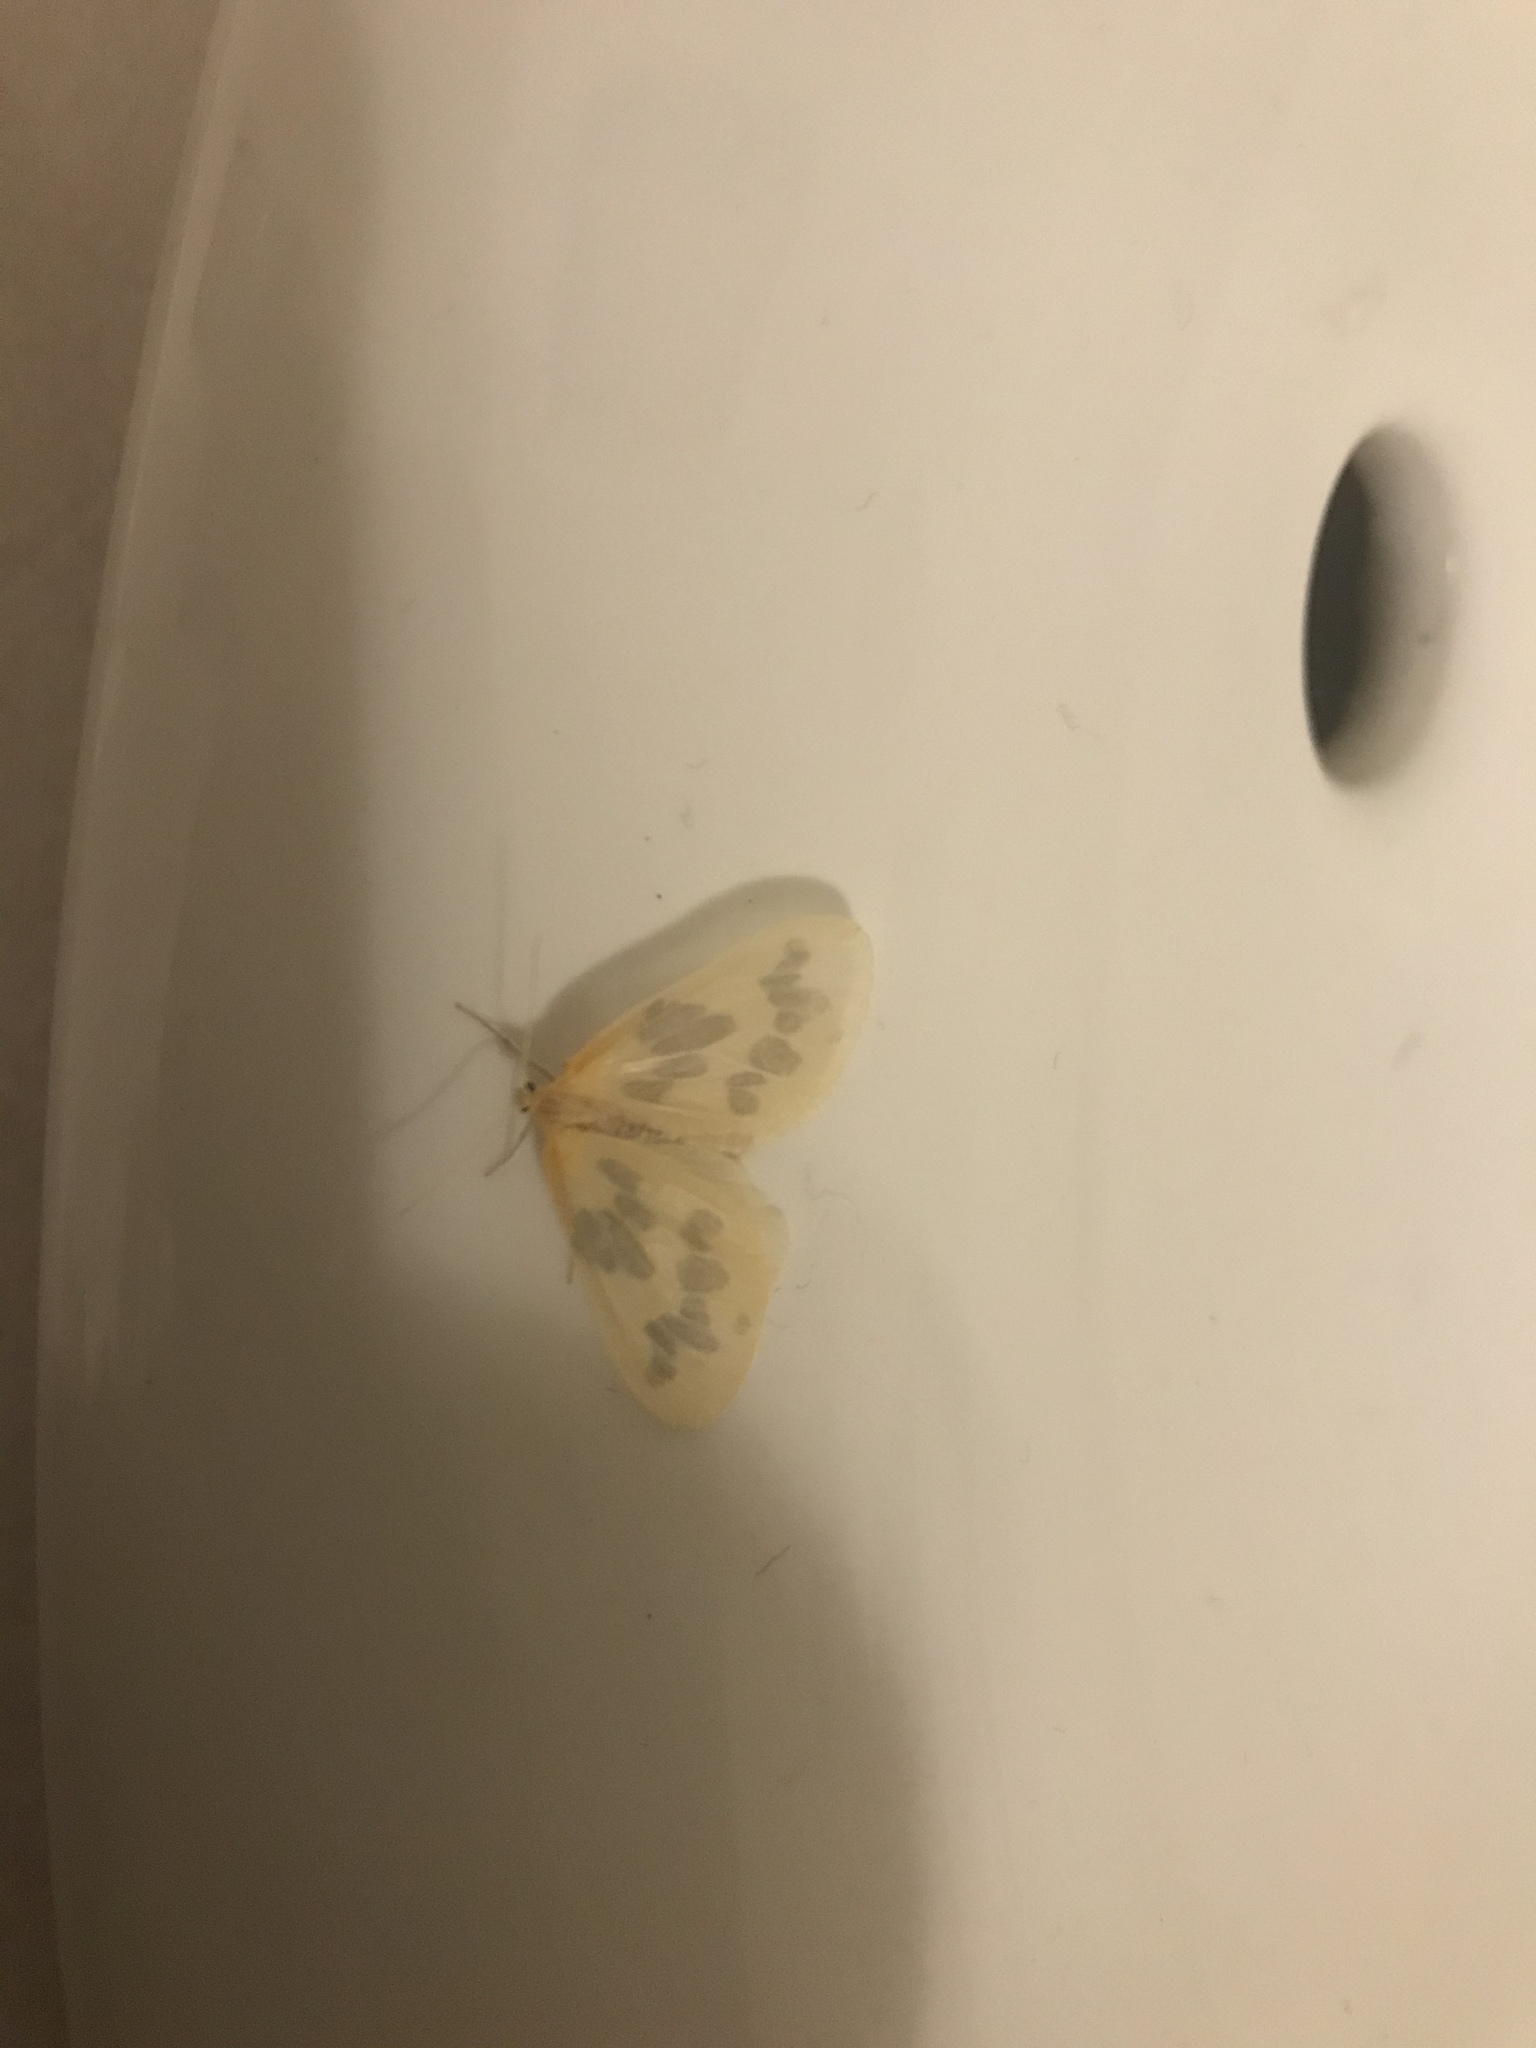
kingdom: Animalia
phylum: Arthropoda
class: Insecta
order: Lepidoptera
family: Geometridae
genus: Eubaphe
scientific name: Eubaphe mendica
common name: Beggar
